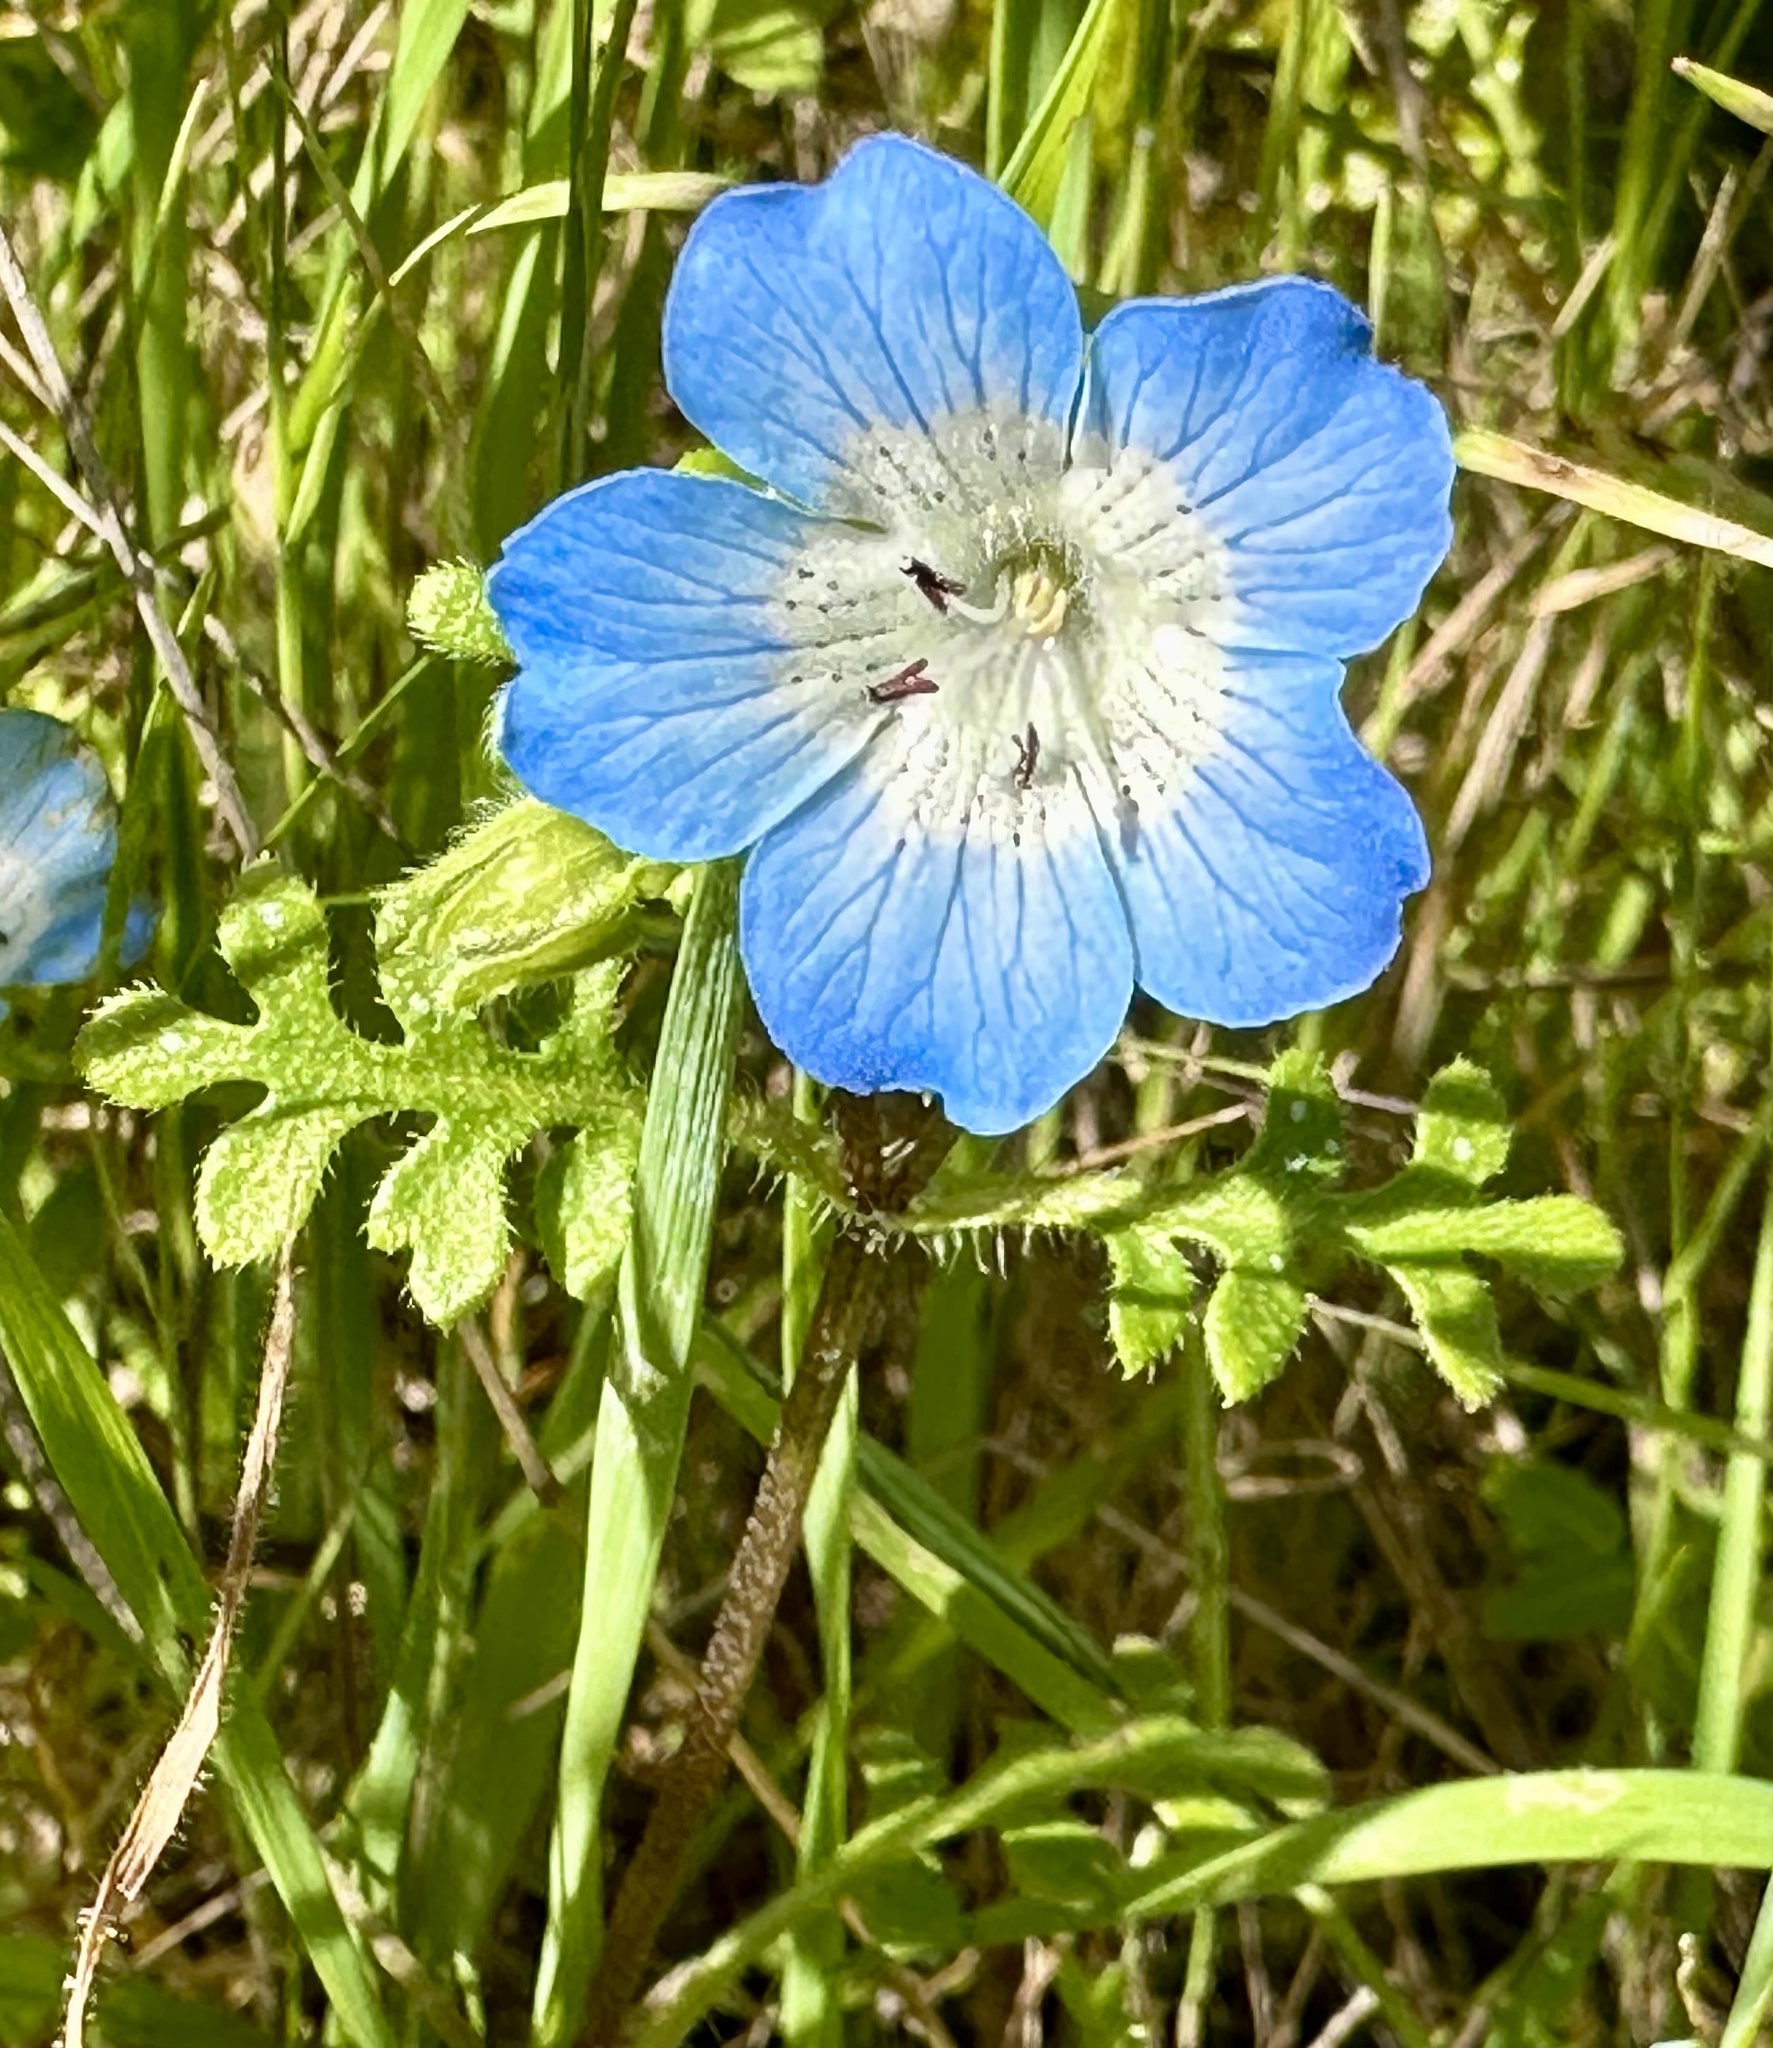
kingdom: Plantae
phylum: Tracheophyta
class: Magnoliopsida
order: Boraginales
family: Hydrophyllaceae
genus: Nemophila
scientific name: Nemophila menziesii
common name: Baby's-blue-eyes
